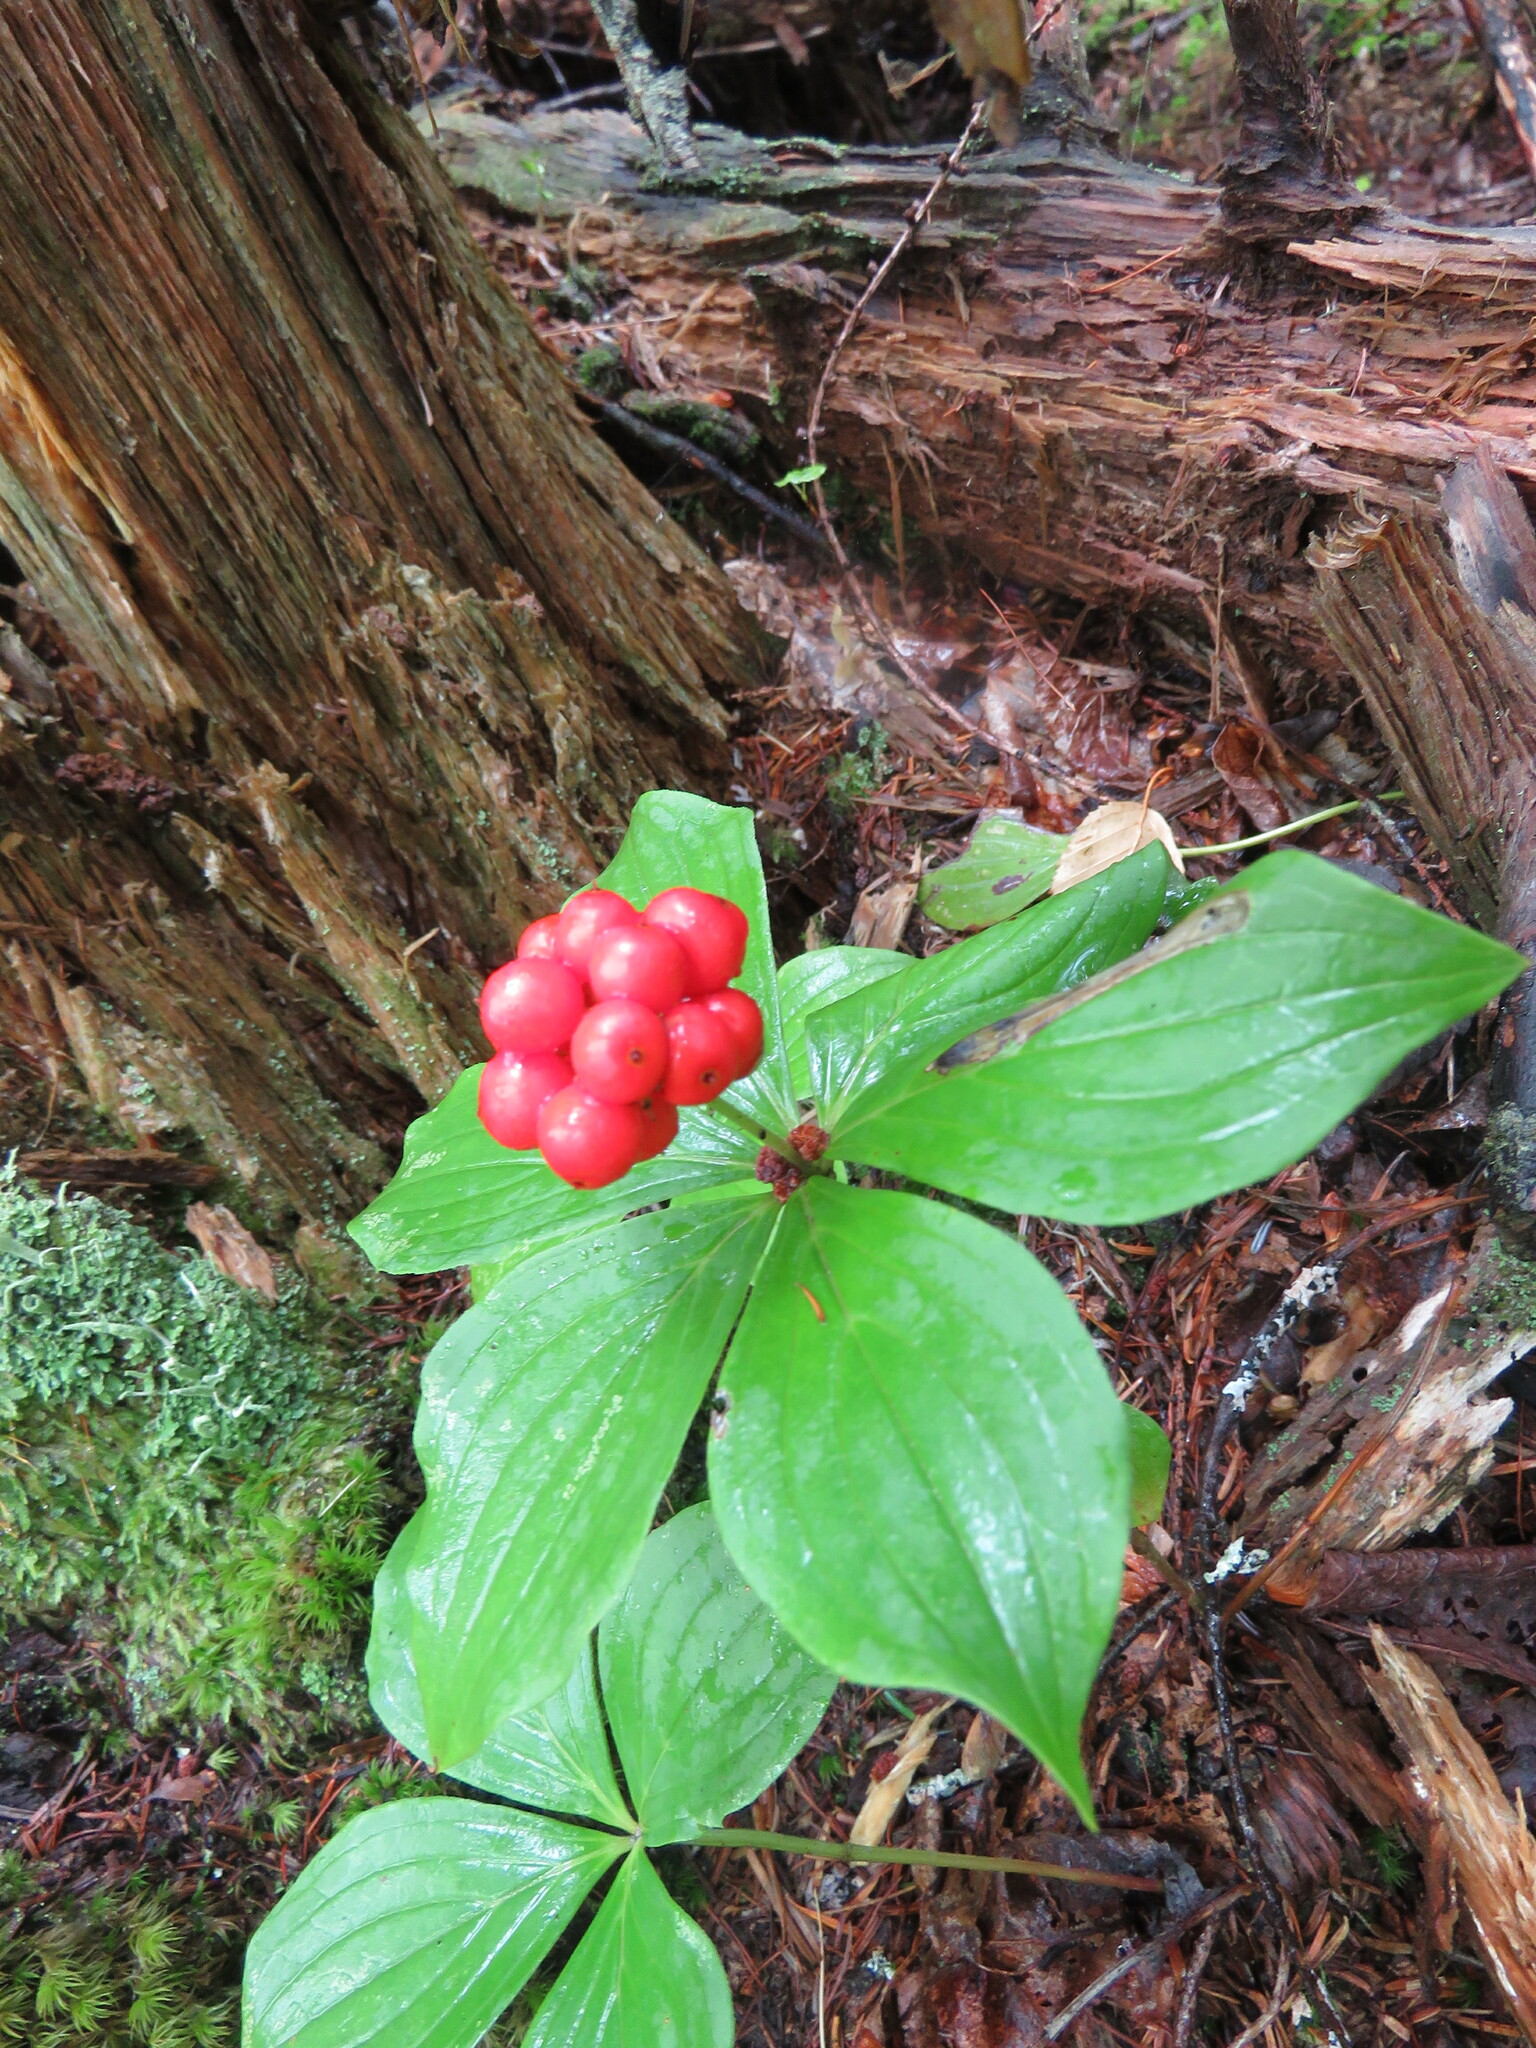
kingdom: Plantae
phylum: Tracheophyta
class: Magnoliopsida
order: Cornales
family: Cornaceae
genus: Cornus
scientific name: Cornus canadensis
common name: Creeping dogwood
